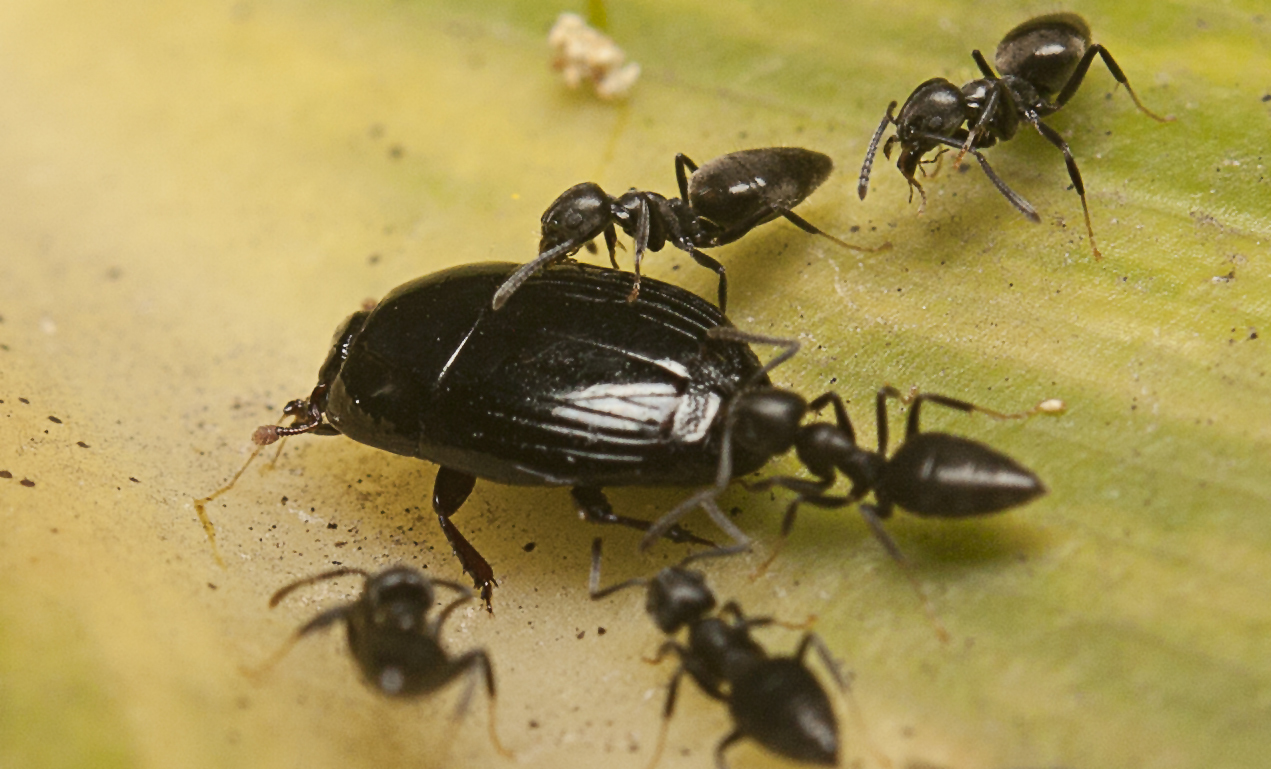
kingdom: Animalia
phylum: Arthropoda
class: Insecta
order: Hymenoptera
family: Formicidae
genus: Technomyrmex
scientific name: Technomyrmex jocosus
